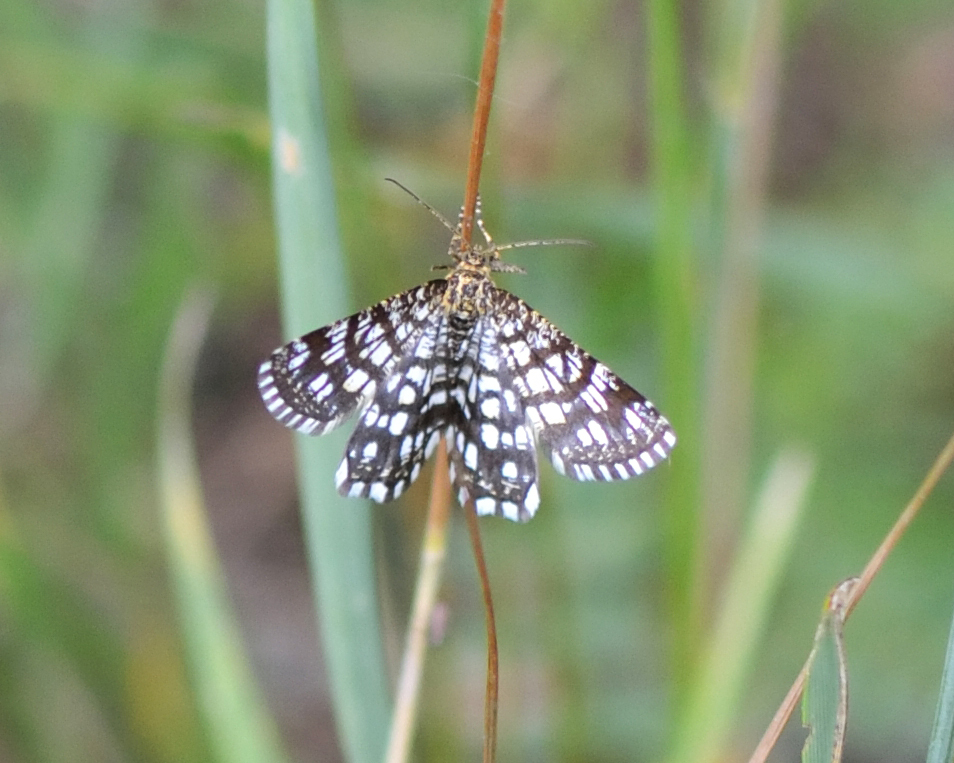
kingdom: Animalia
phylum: Arthropoda
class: Insecta
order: Lepidoptera
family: Geometridae
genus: Chiasmia
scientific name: Chiasmia clathrata
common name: Latticed heath
